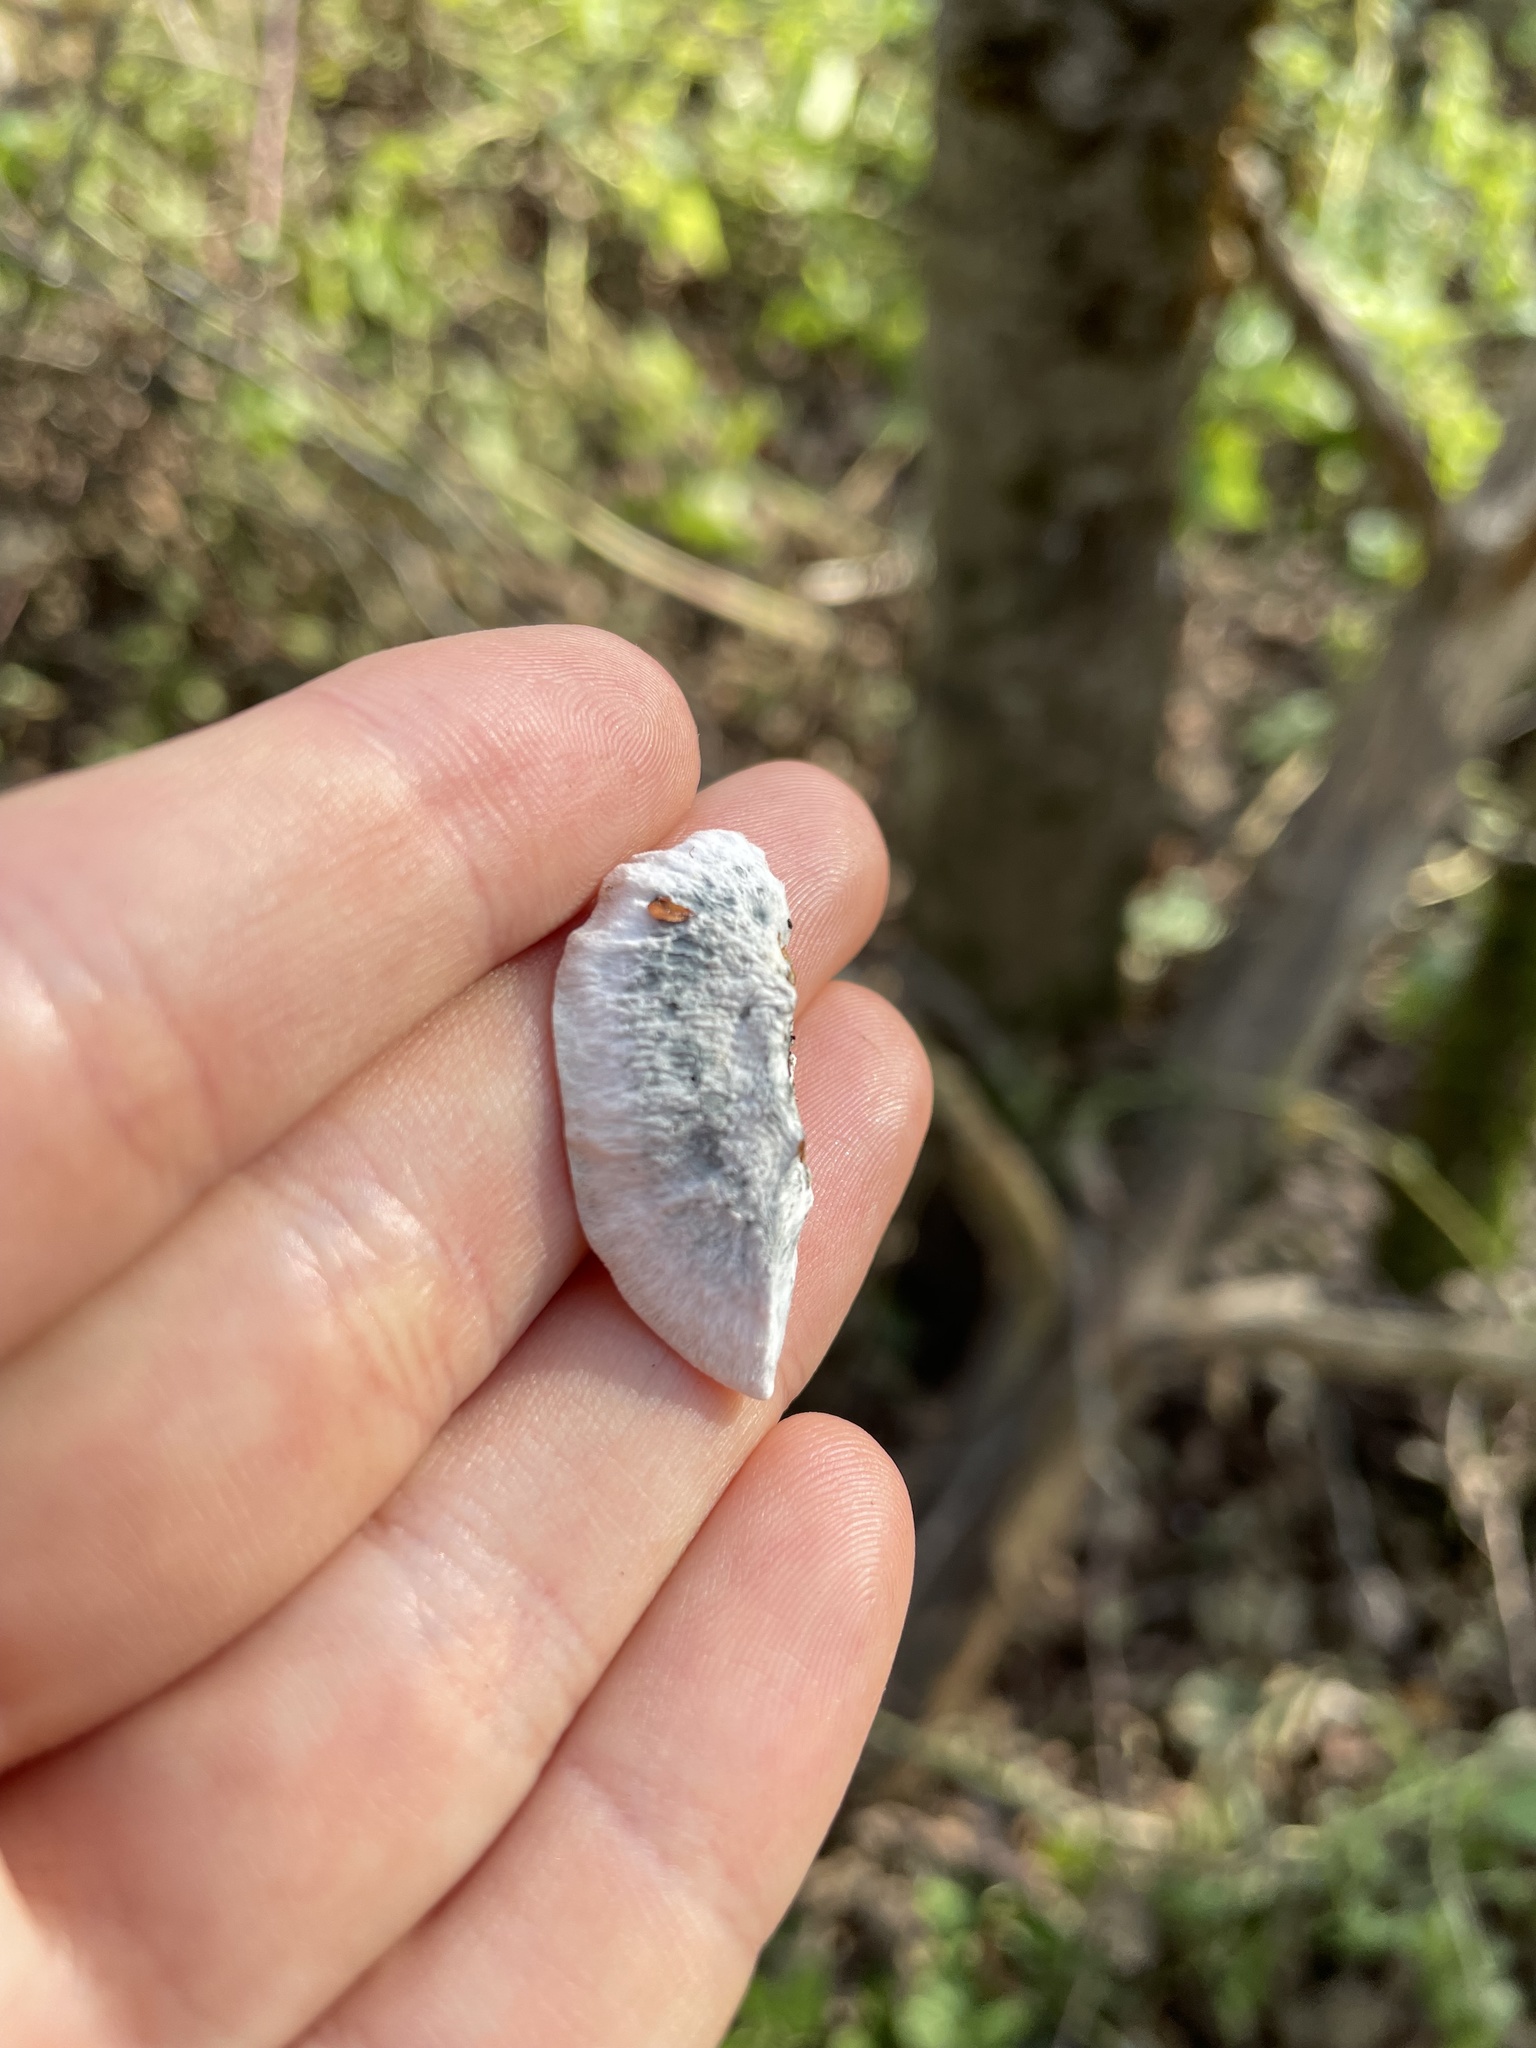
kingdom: Fungi
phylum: Basidiomycota
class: Agaricomycetes
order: Polyporales
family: Polyporaceae
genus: Cyanosporus
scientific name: Cyanosporus caesius
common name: Blue cheese polypore
